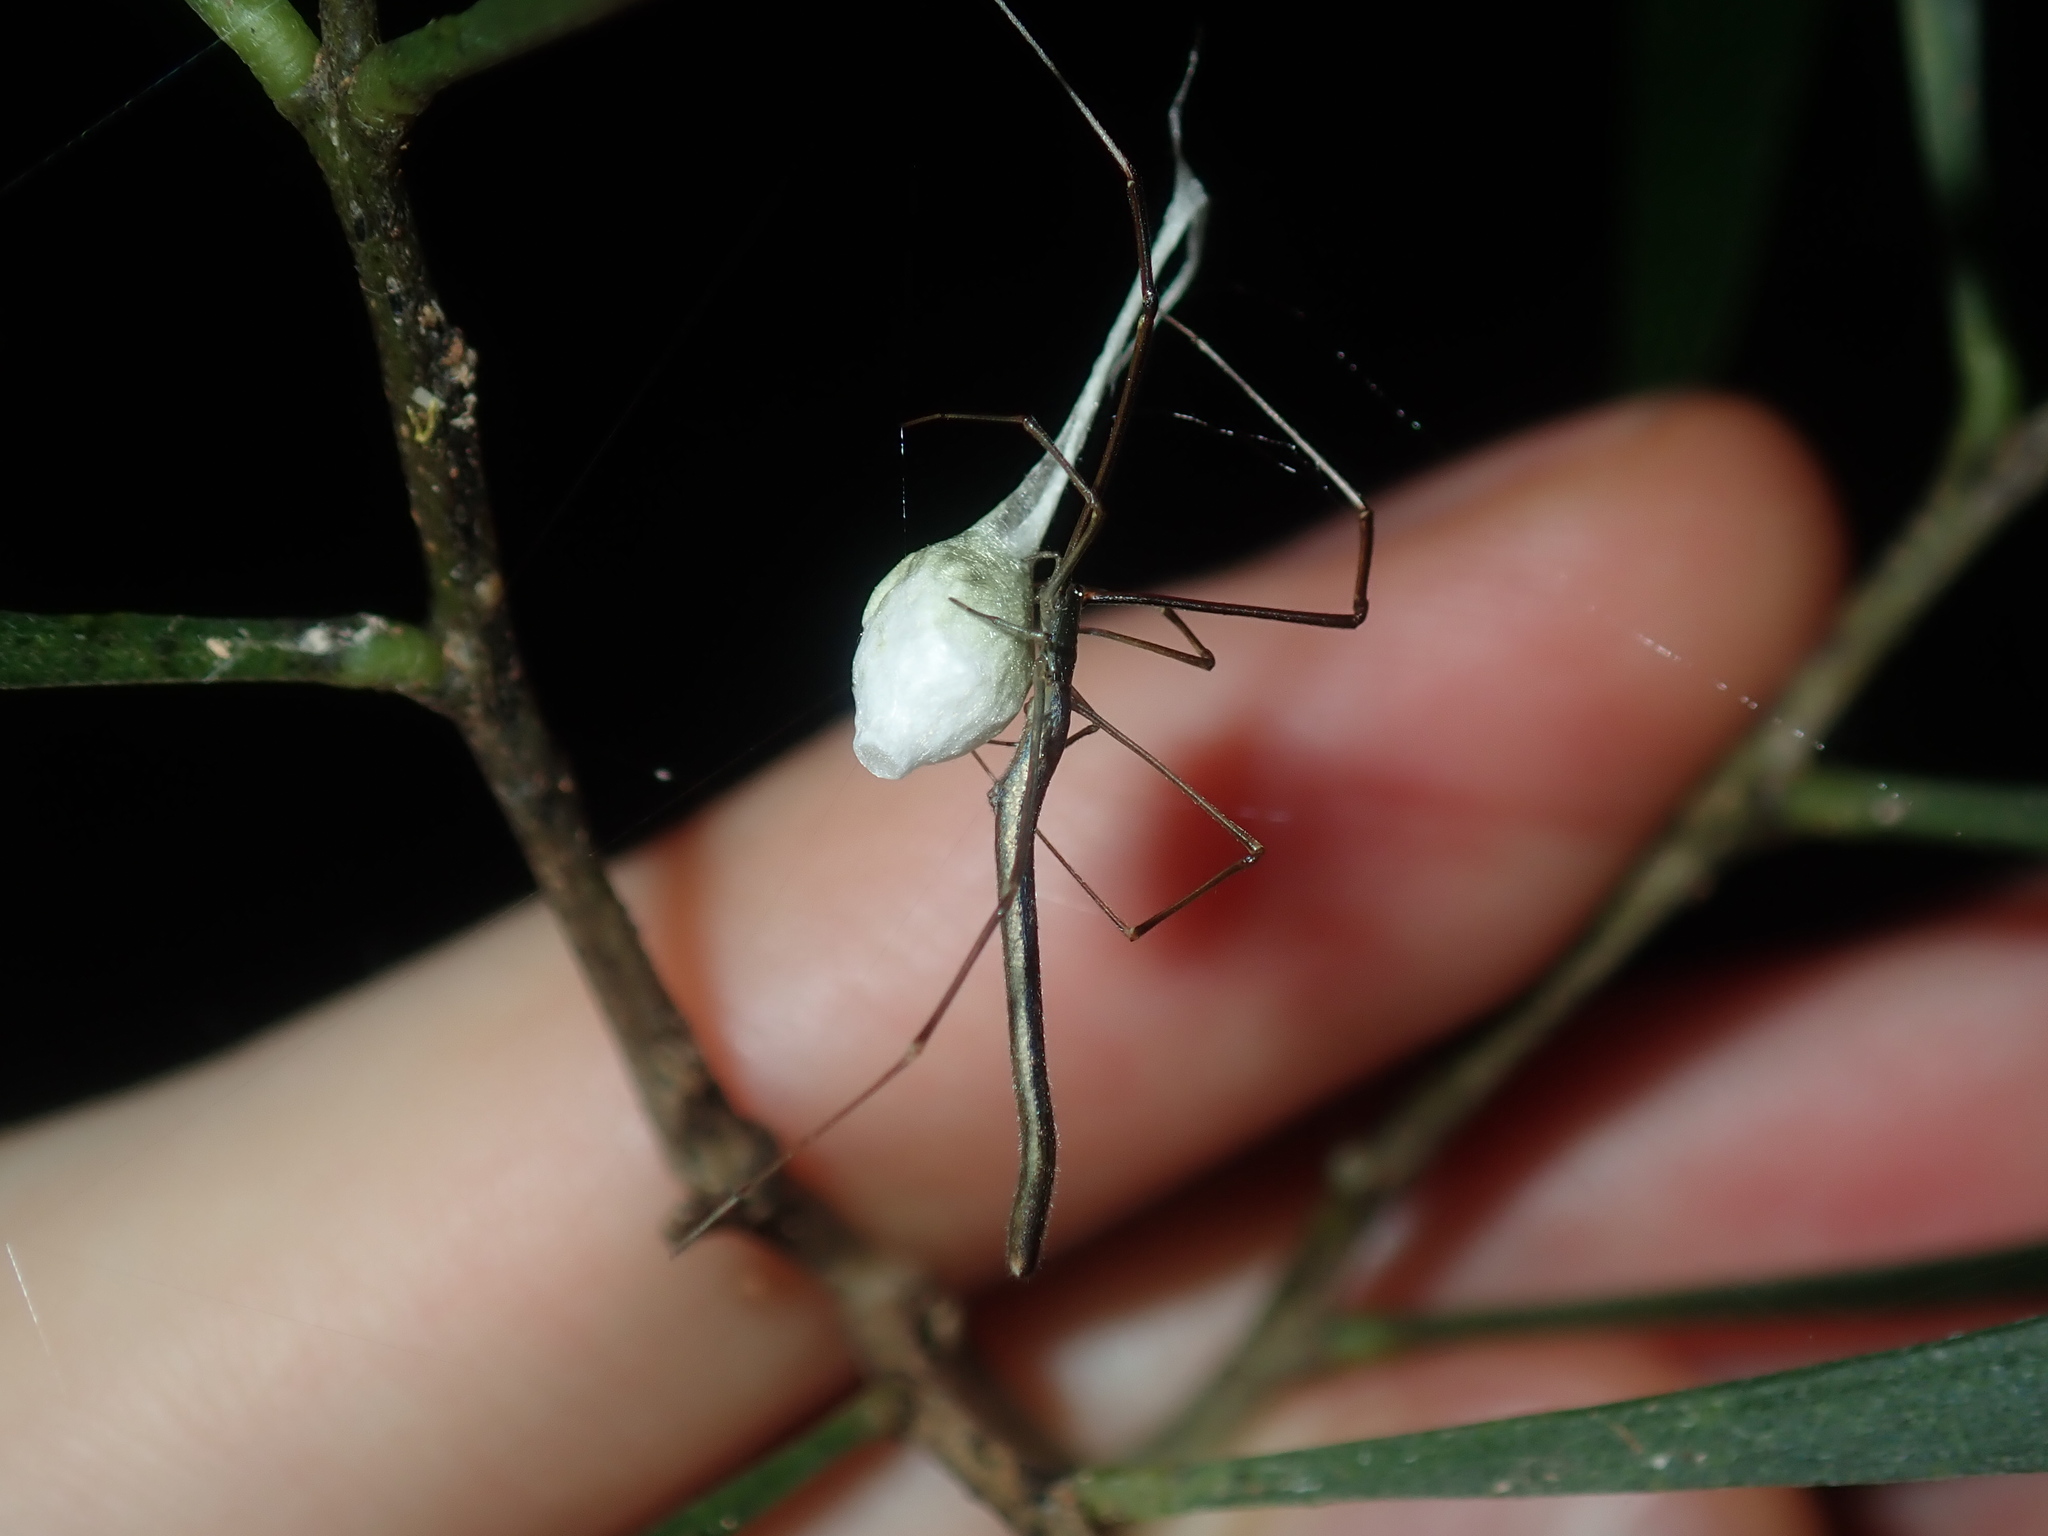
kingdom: Animalia
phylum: Arthropoda
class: Arachnida
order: Araneae
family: Theridiidae
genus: Ariamnes
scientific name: Ariamnes colubrinus
